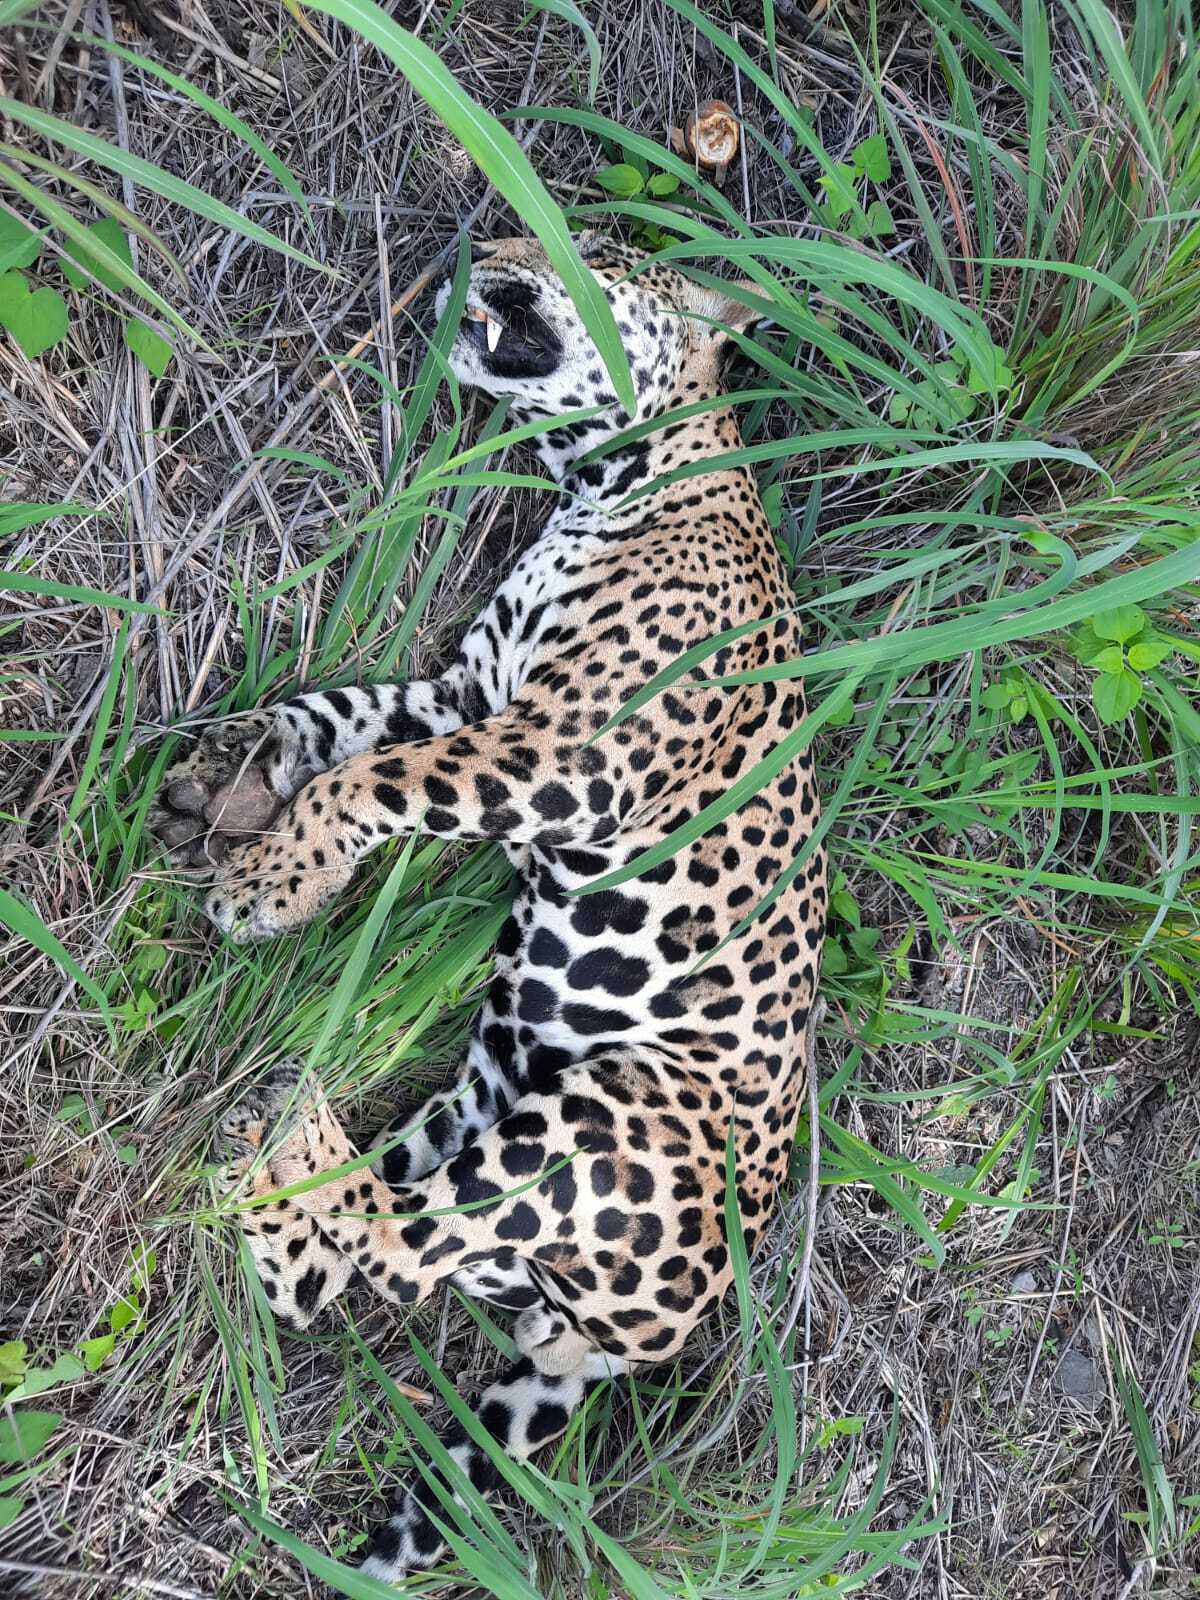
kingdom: Animalia
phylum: Chordata
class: Mammalia
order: Carnivora
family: Felidae
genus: Panthera
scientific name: Panthera onca
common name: Jaguar
